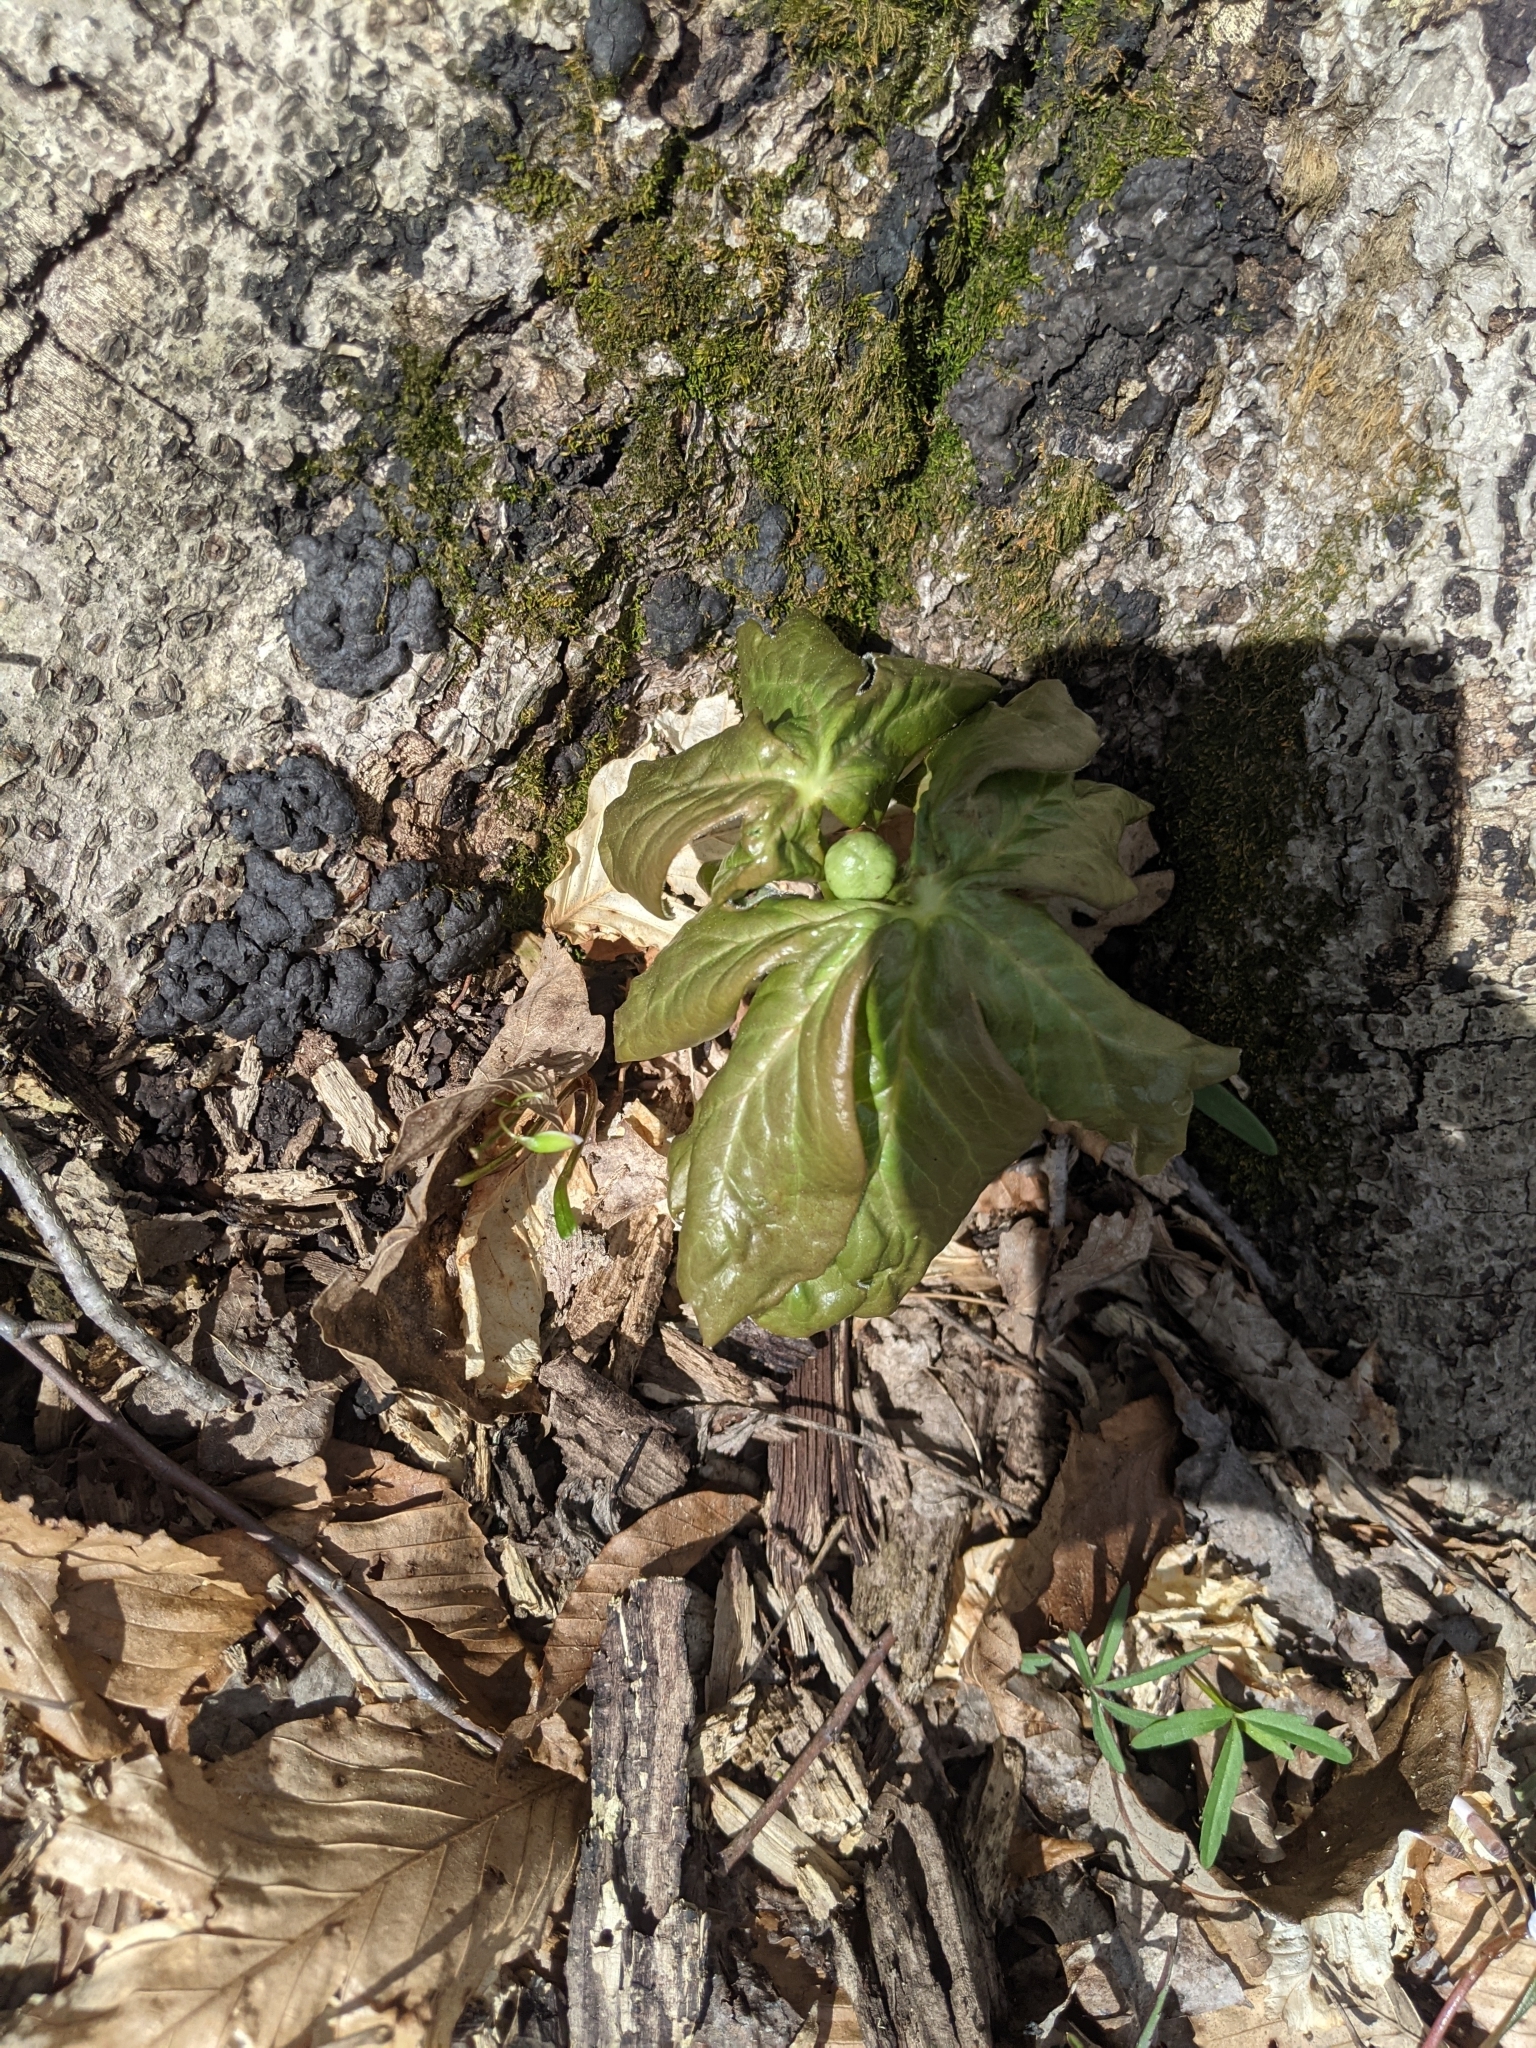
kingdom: Plantae
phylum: Tracheophyta
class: Magnoliopsida
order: Ranunculales
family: Berberidaceae
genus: Podophyllum
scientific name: Podophyllum peltatum
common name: Wild mandrake
